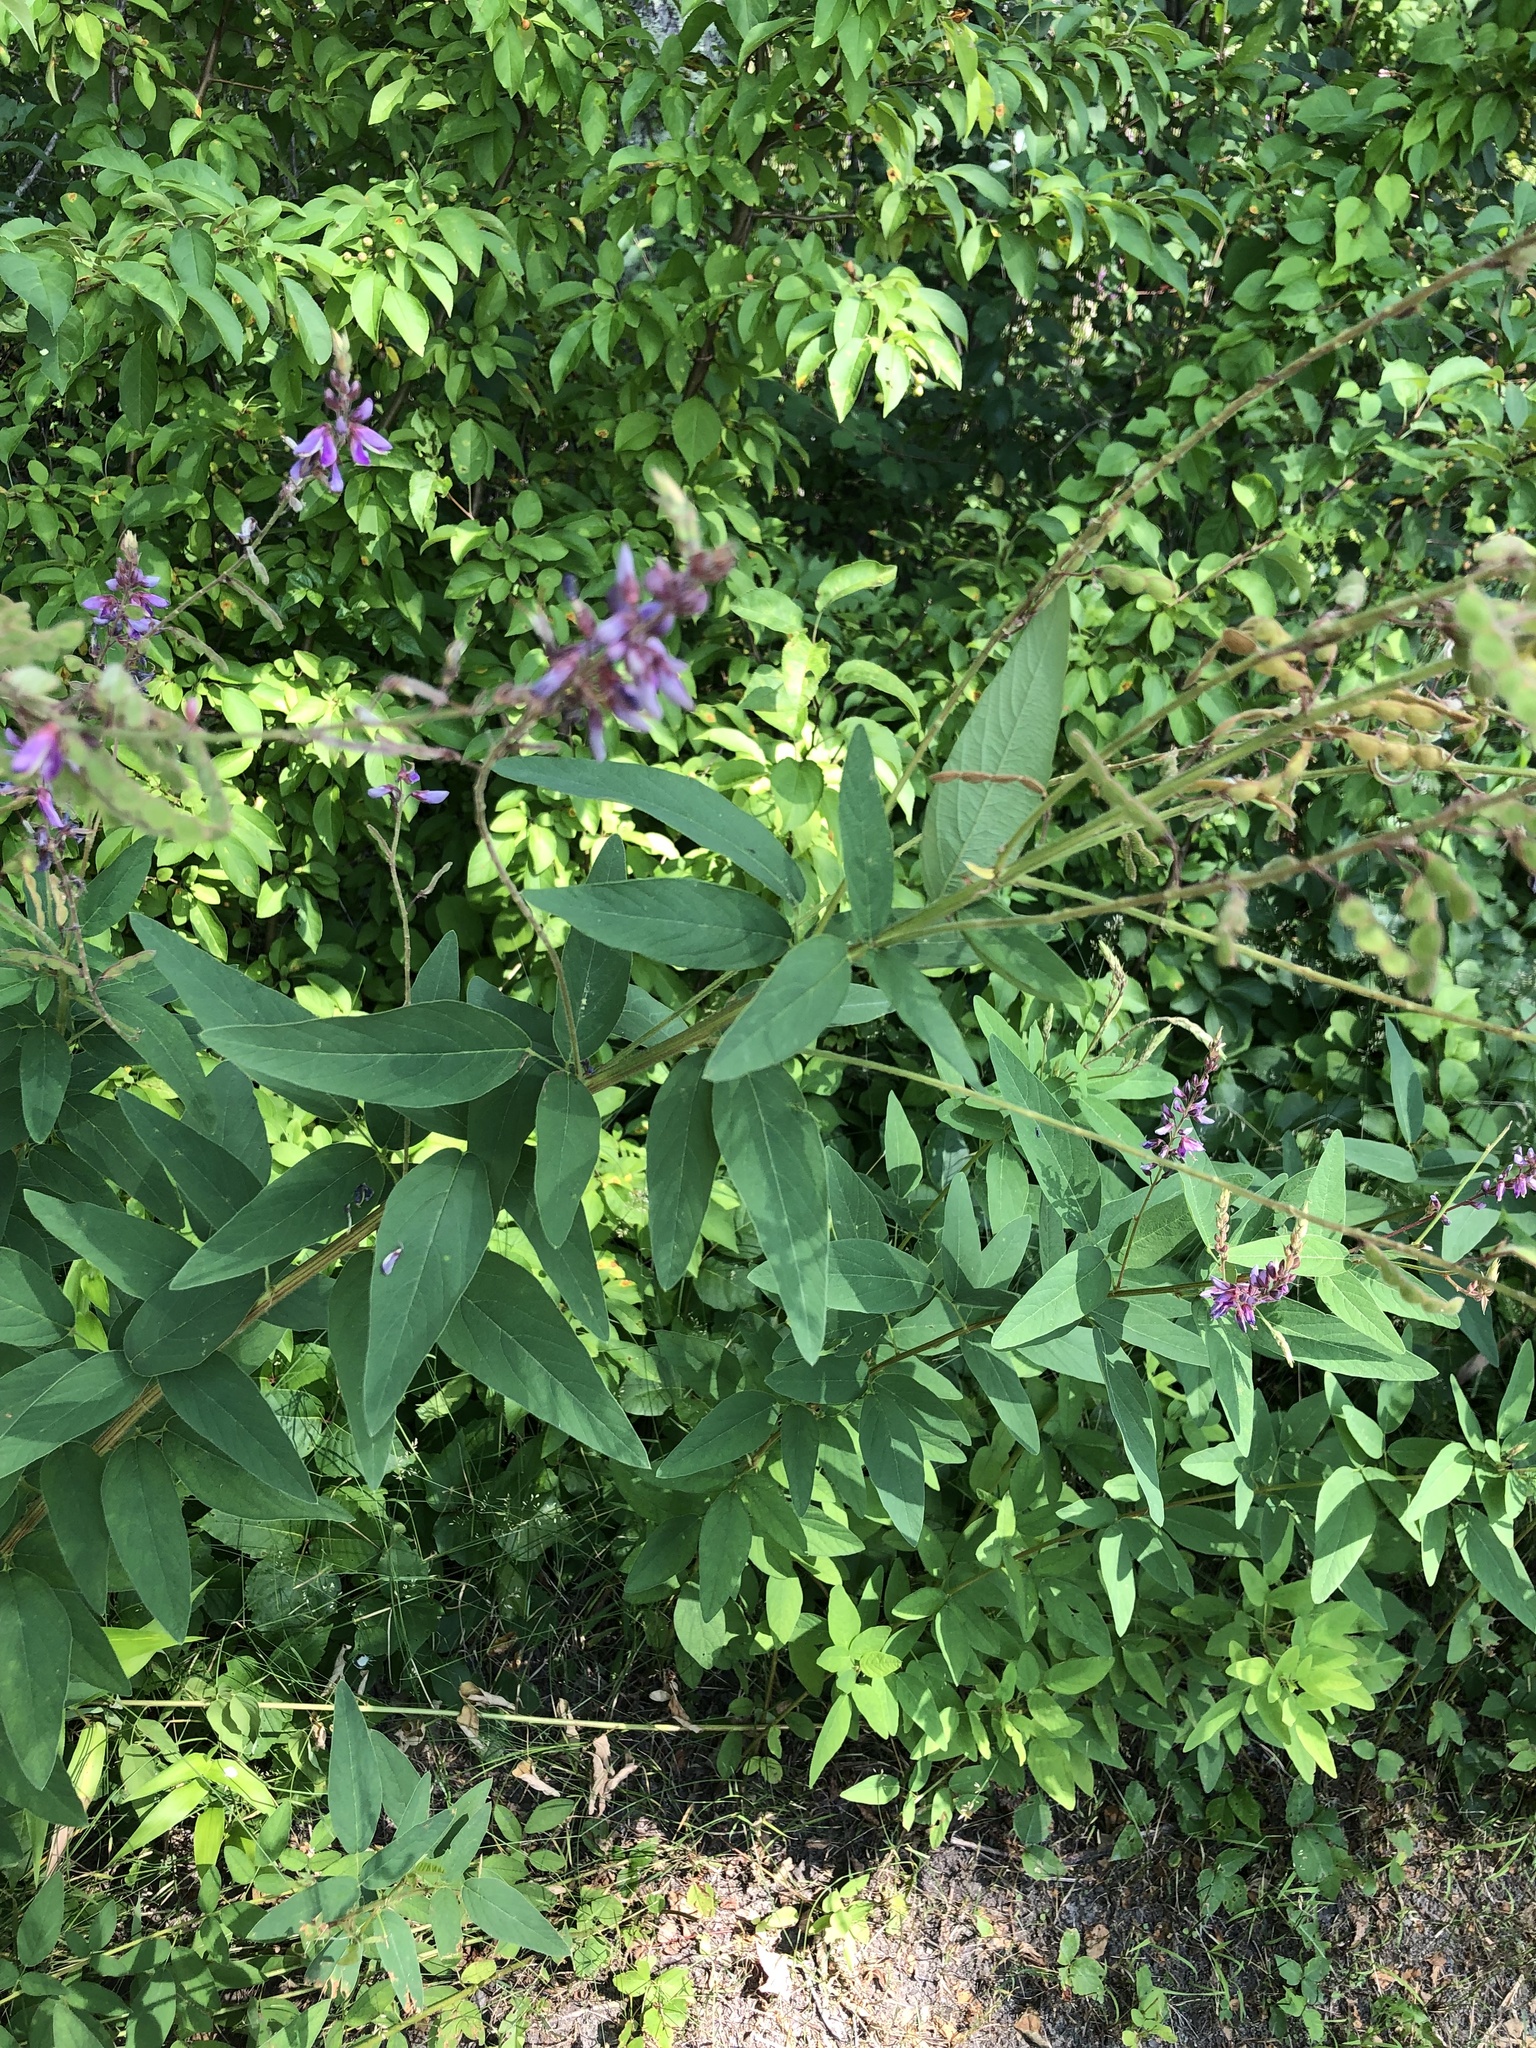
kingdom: Plantae
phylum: Tracheophyta
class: Magnoliopsida
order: Fabales
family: Fabaceae
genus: Desmodium
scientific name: Desmodium canadense
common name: Canada tick-trefoil
